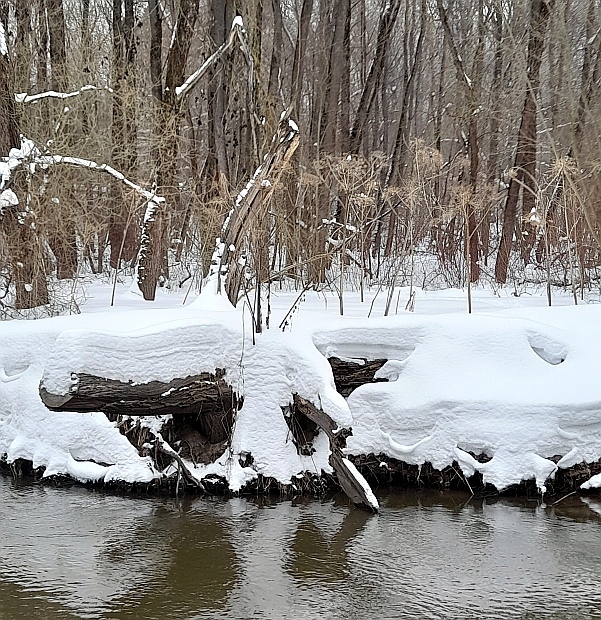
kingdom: Plantae
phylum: Tracheophyta
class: Magnoliopsida
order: Apiales
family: Apiaceae
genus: Heracleum
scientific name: Heracleum sosnowskyi
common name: Sosnowsky's hogweed
